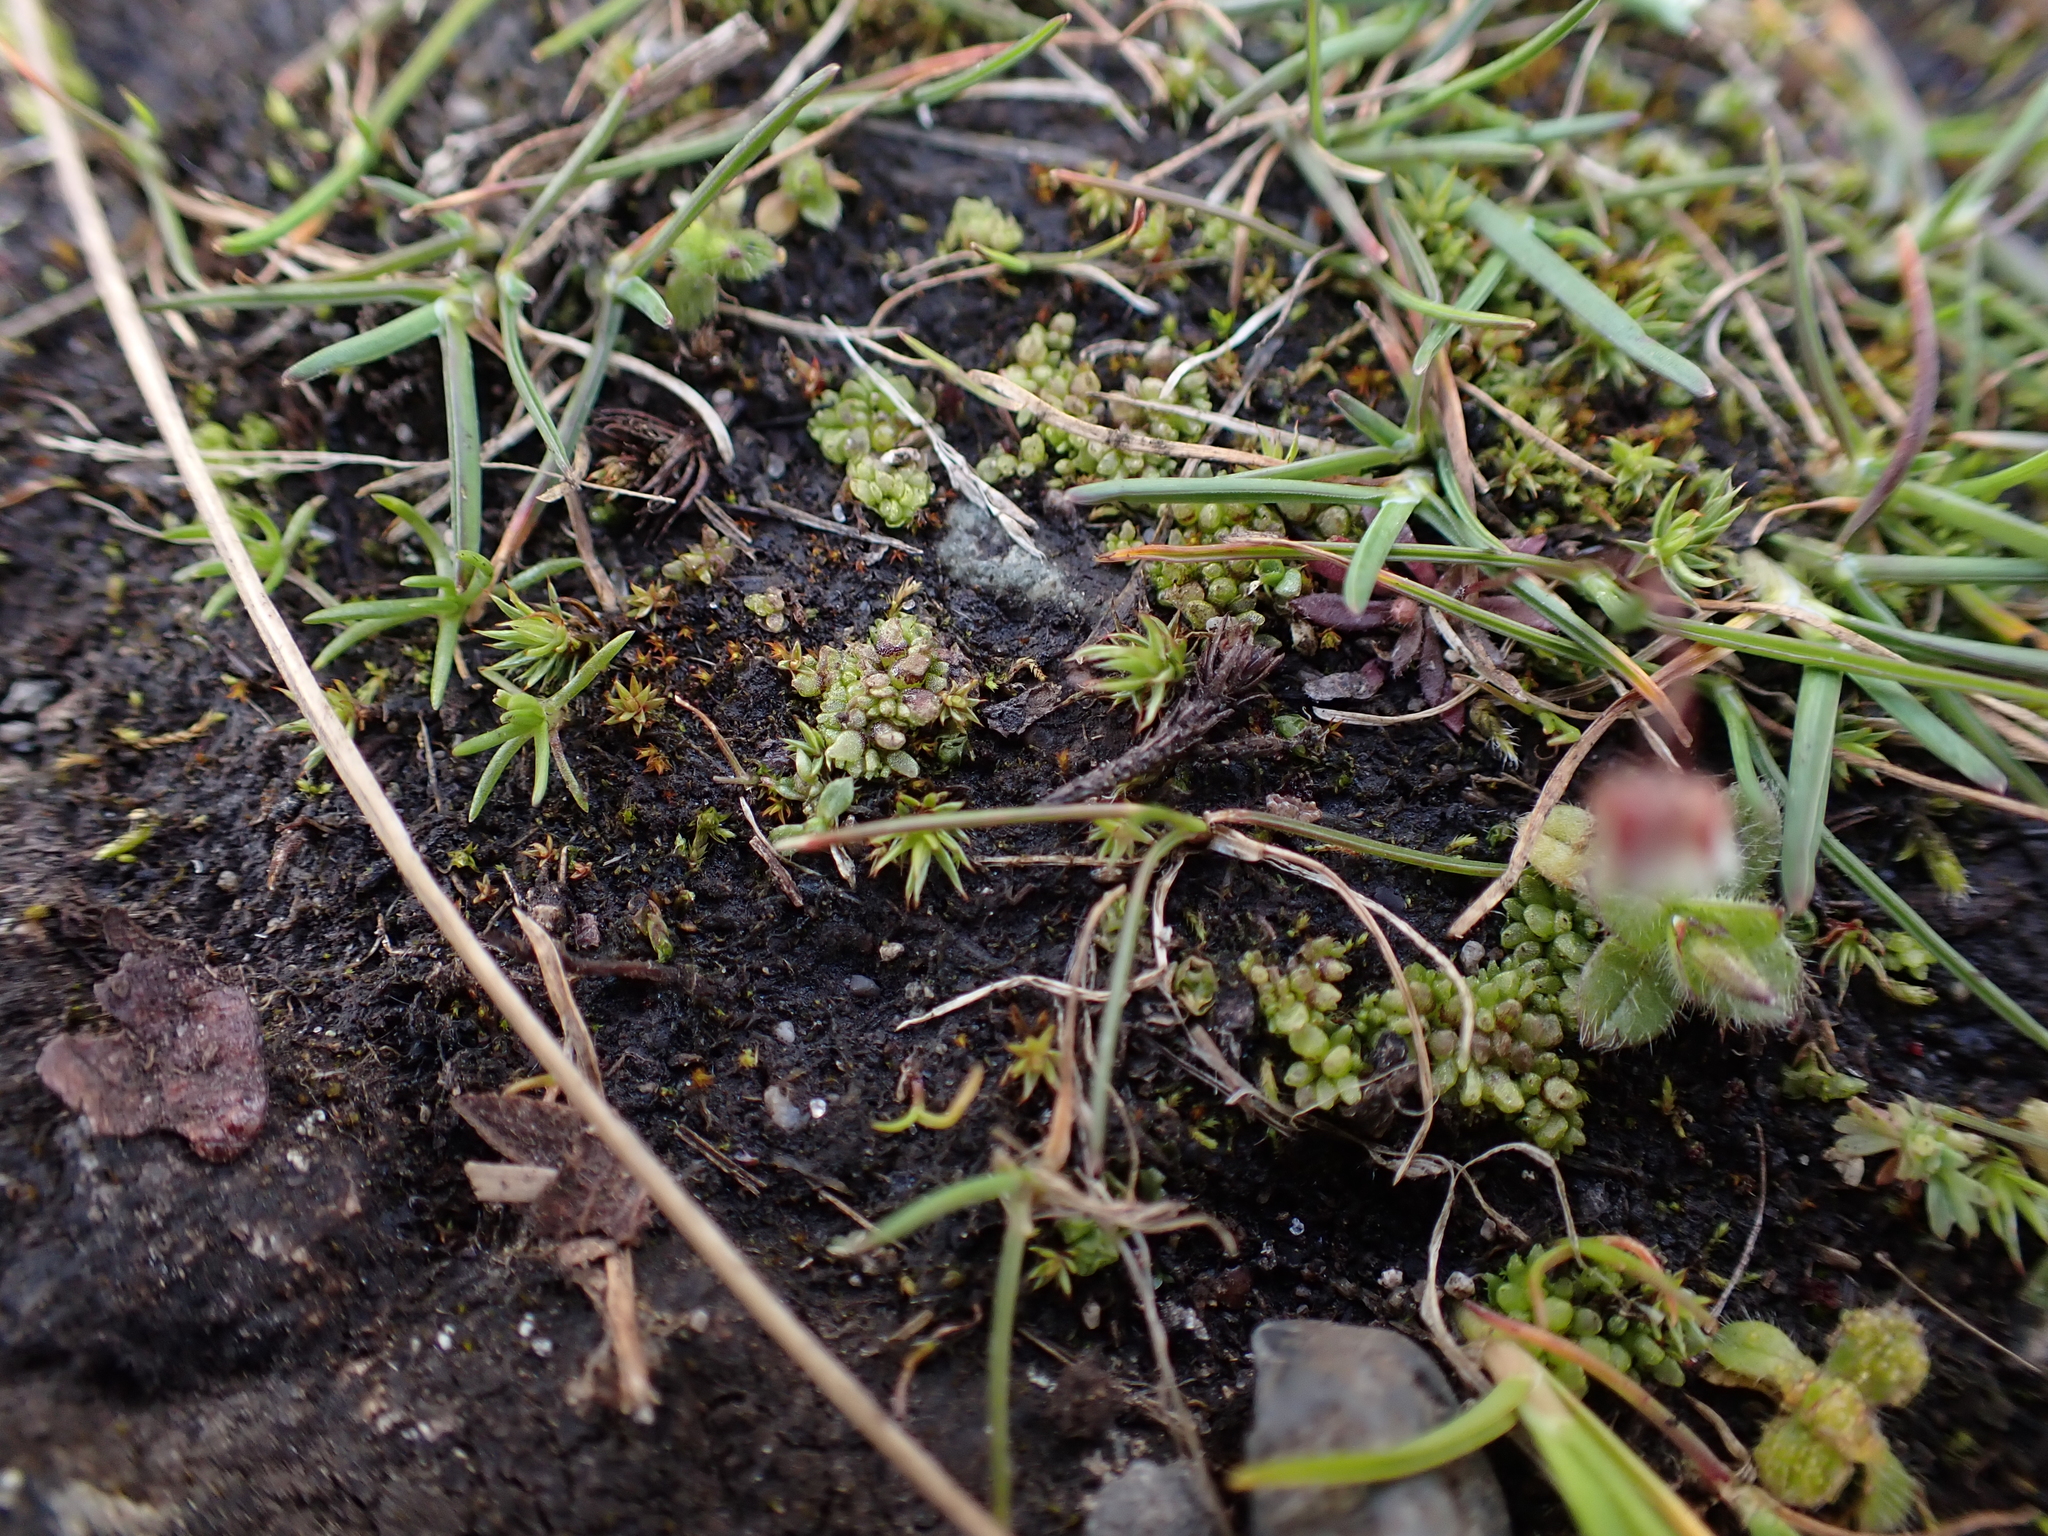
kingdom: Plantae
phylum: Marchantiophyta
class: Marchantiopsida
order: Sphaerocarpales
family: Sphaerocarpaceae
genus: Sphaerocarpos
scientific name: Sphaerocarpos texanus
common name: Texas balloonwort
